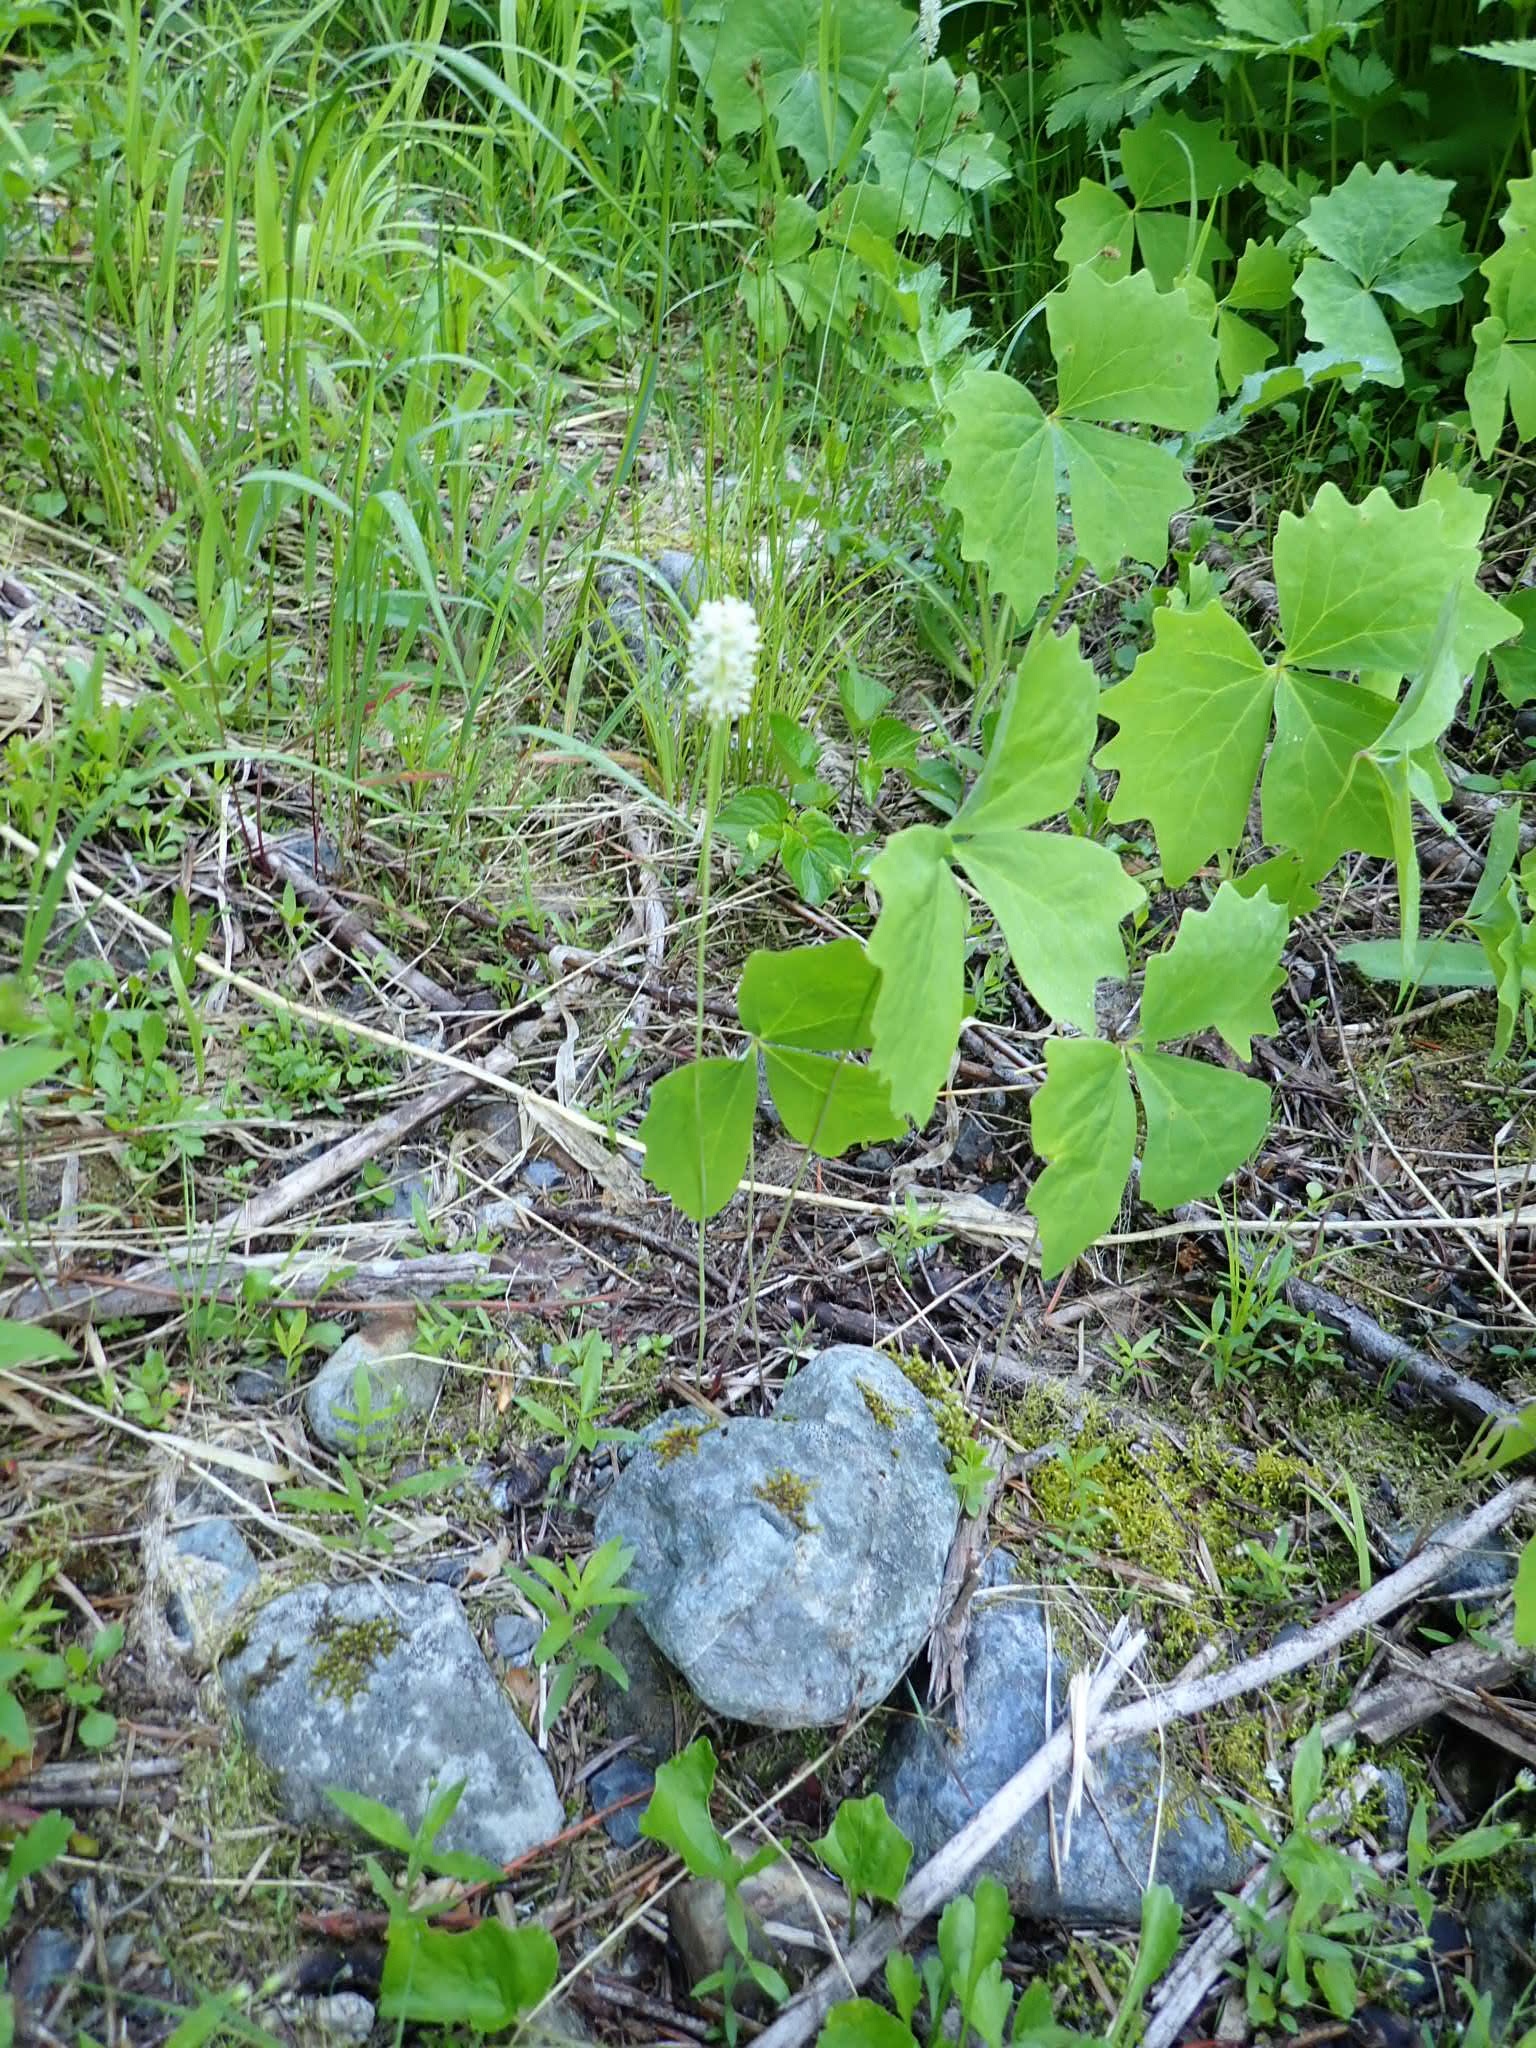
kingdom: Plantae
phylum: Tracheophyta
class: Magnoliopsida
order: Ranunculales
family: Berberidaceae
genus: Achlys
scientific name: Achlys triphylla
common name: Vanilla-leaf
